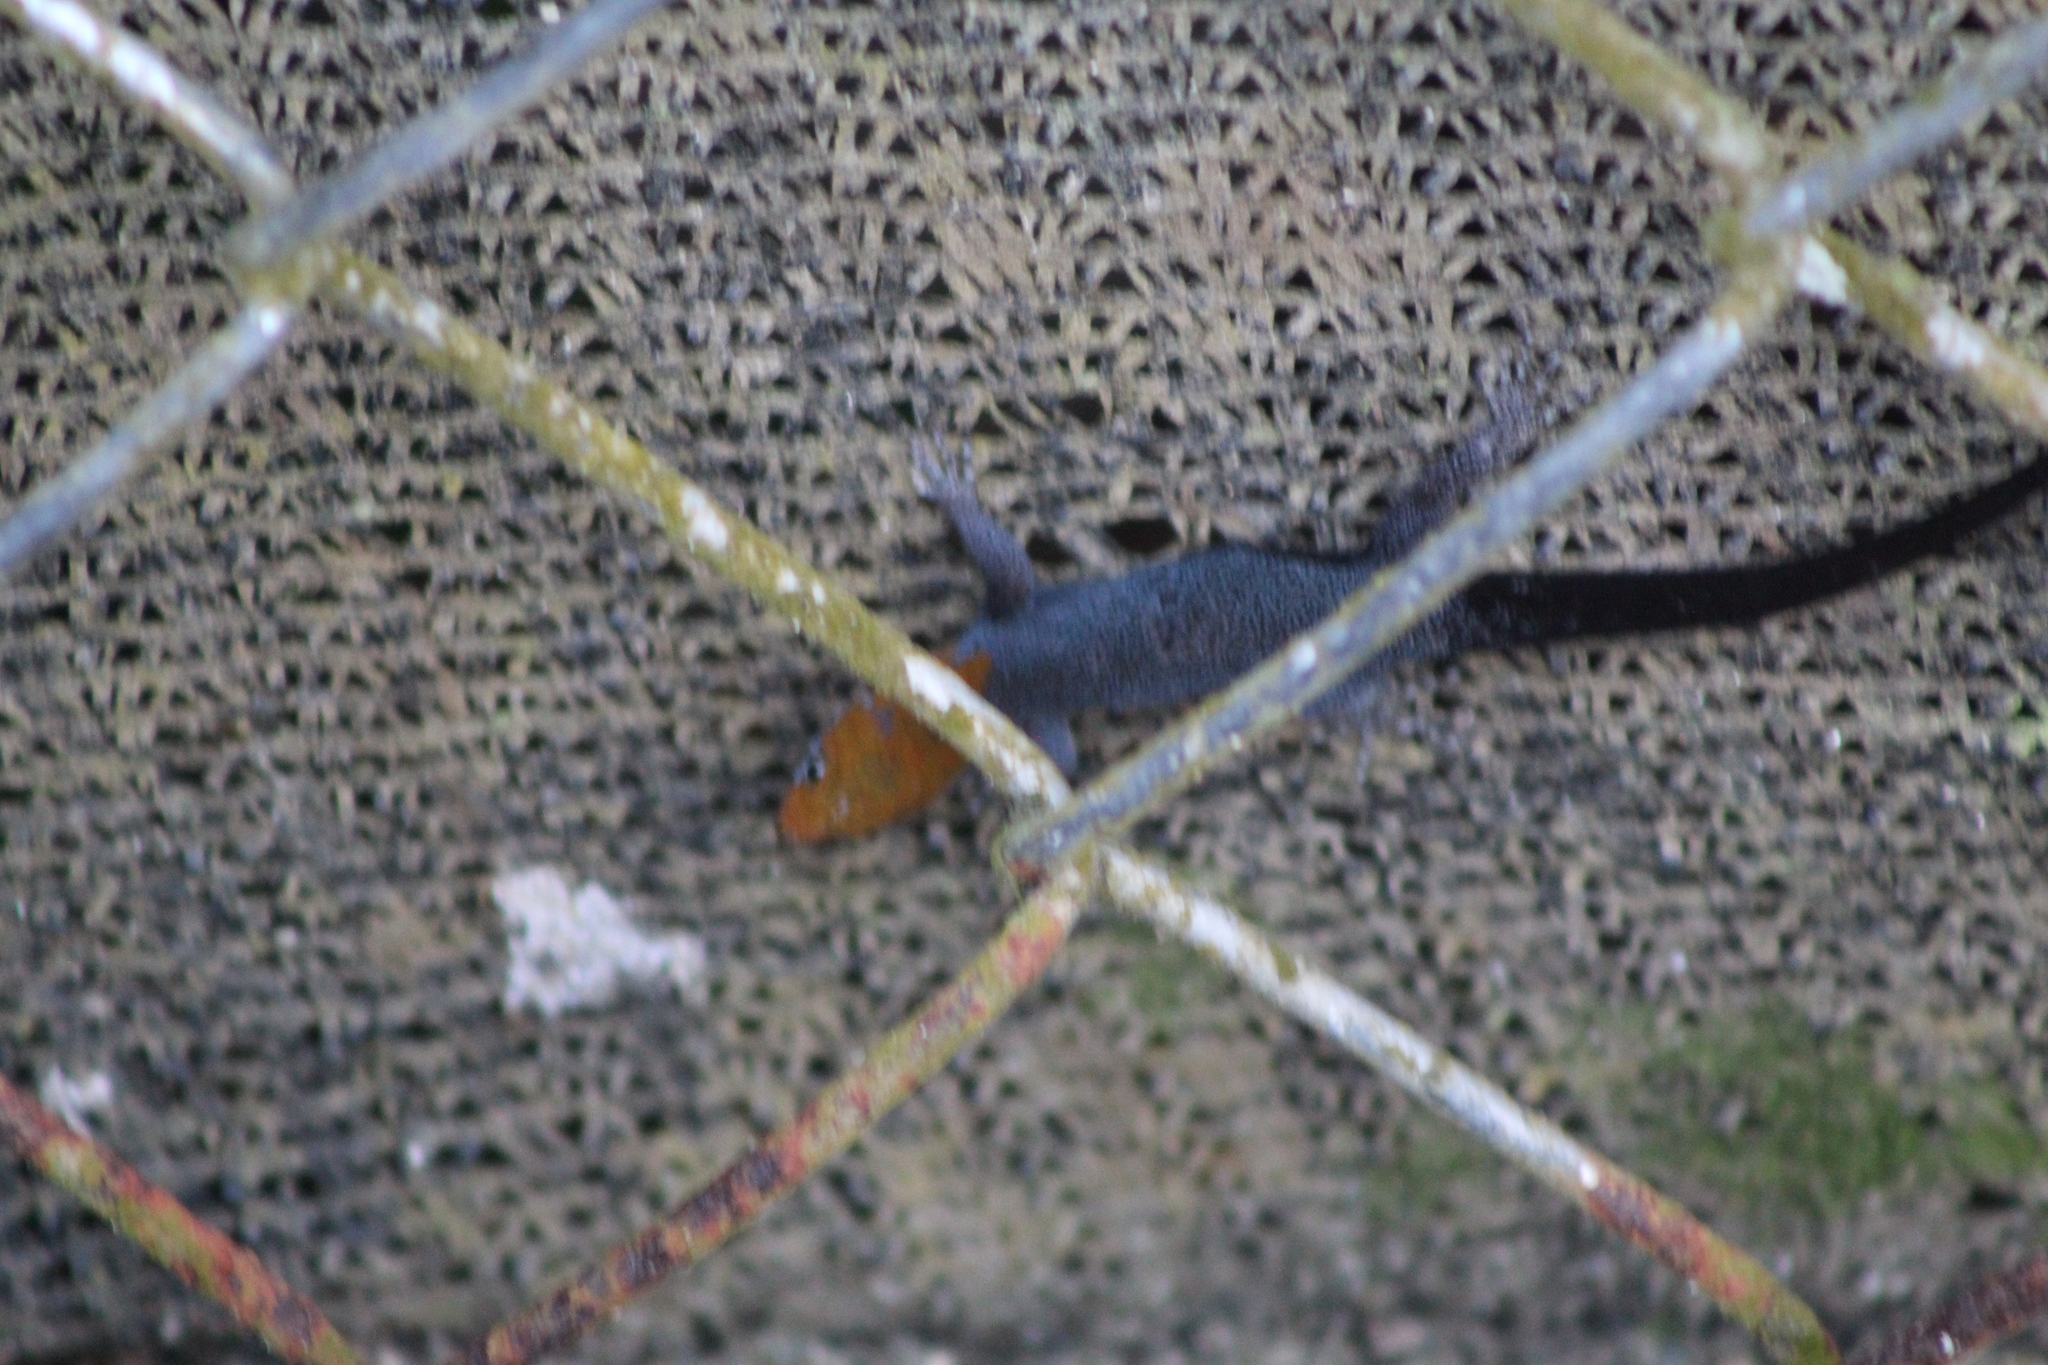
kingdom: Animalia
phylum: Chordata
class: Squamata
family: Sphaerodactylidae
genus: Gonatodes
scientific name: Gonatodes albogularis
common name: Yellow-headed gecko
